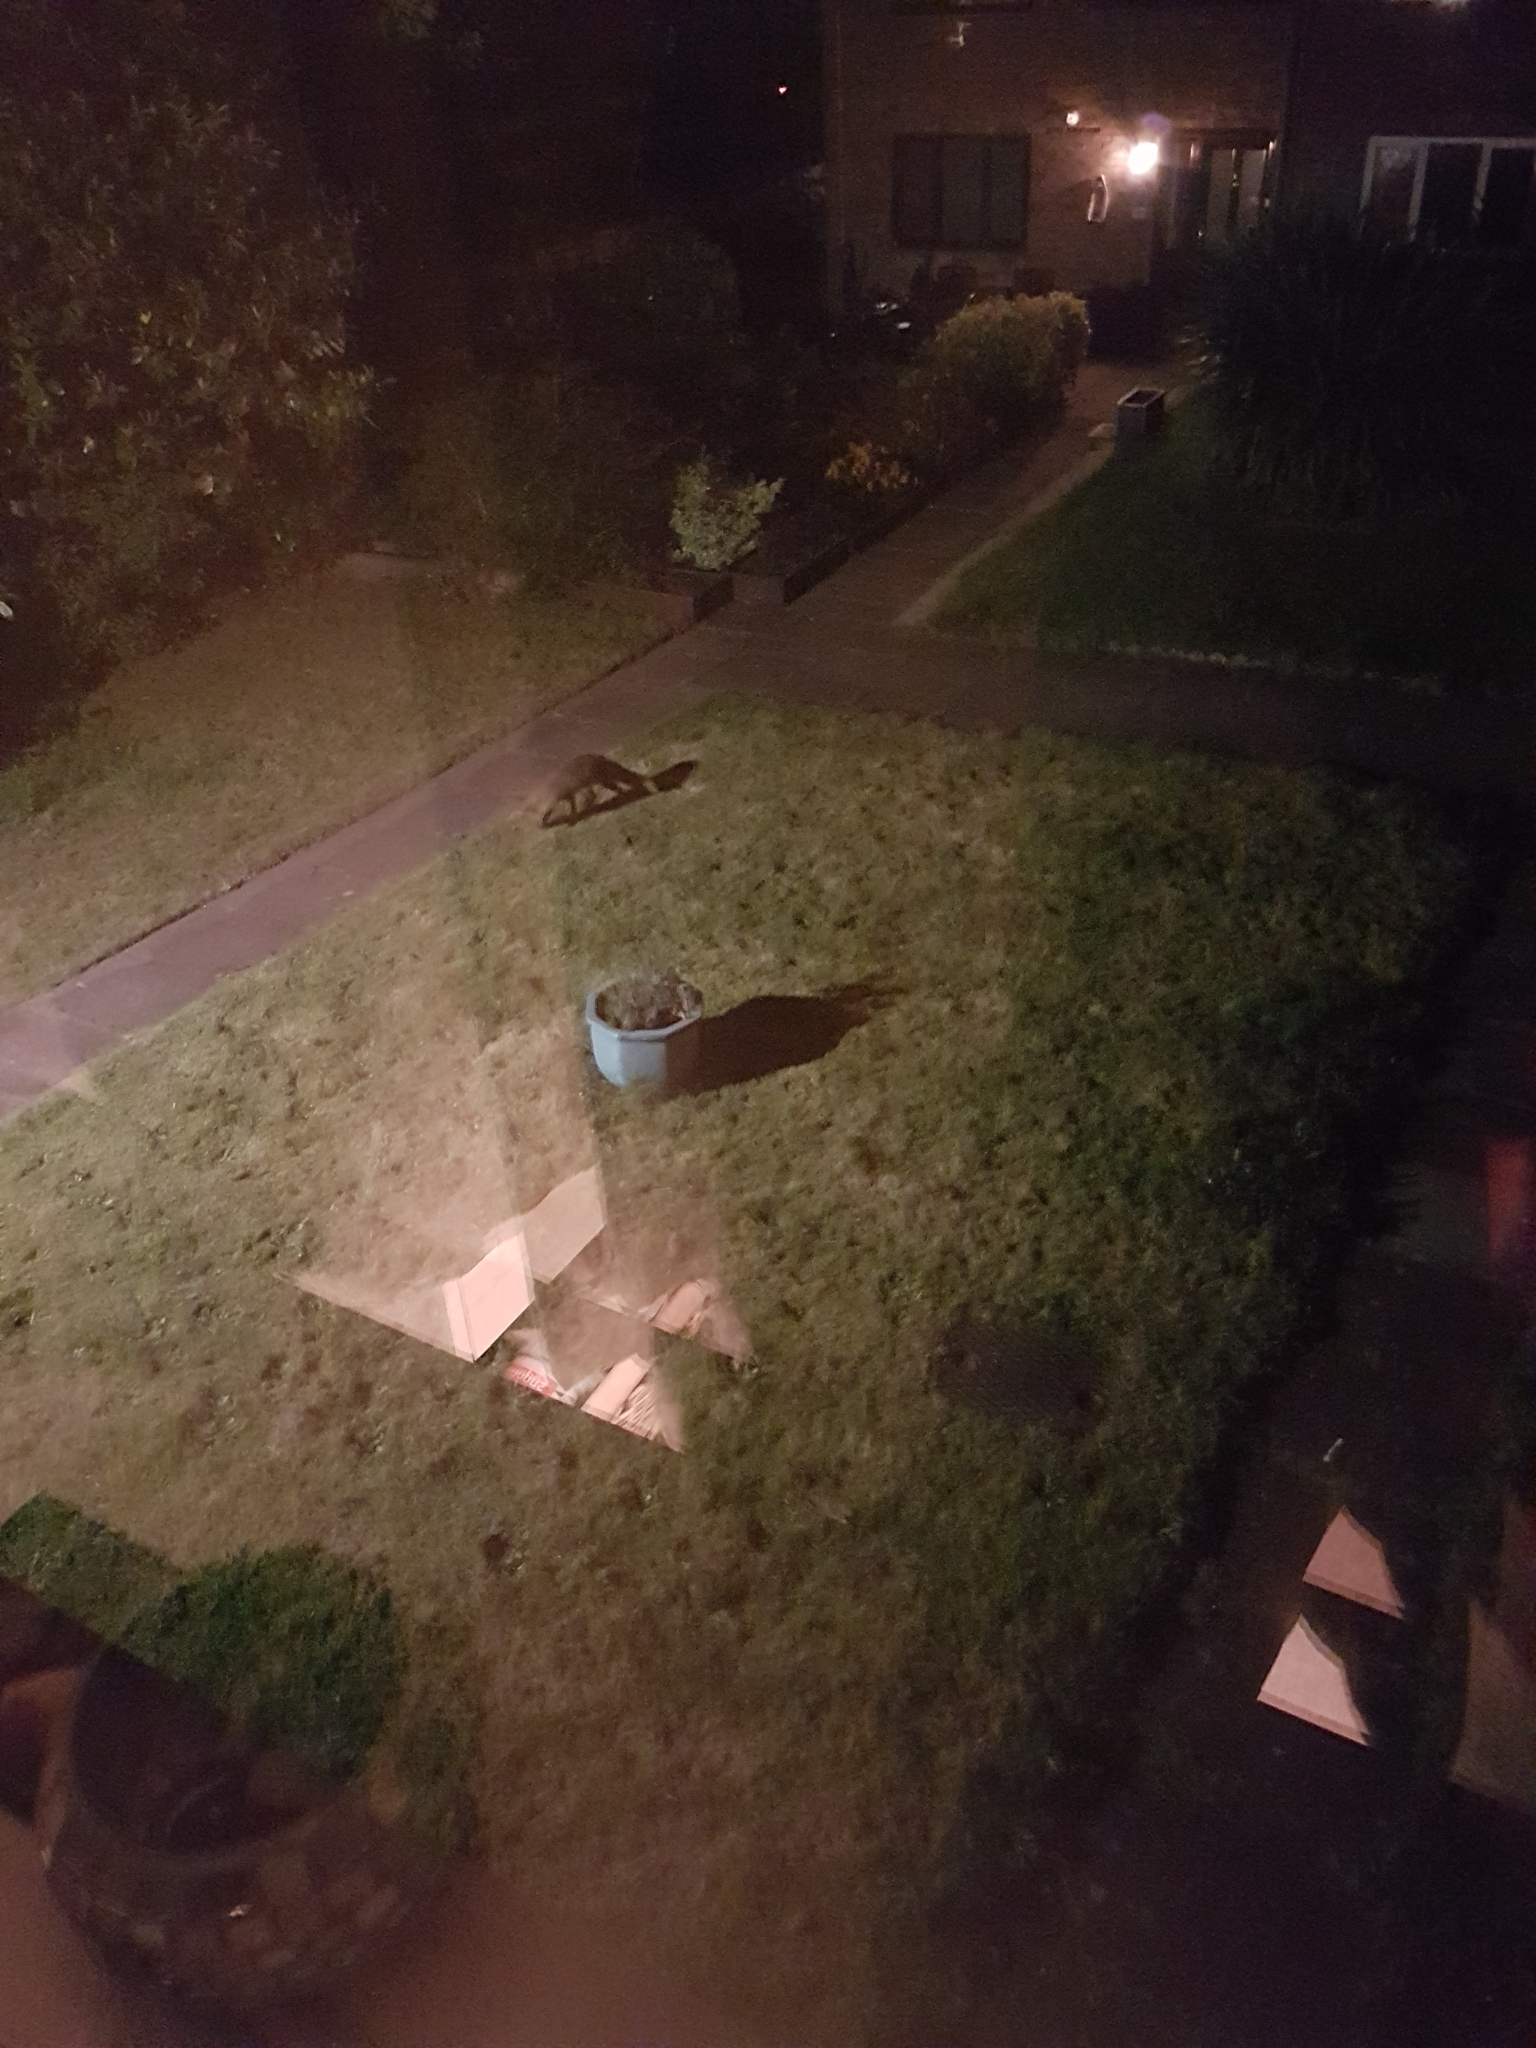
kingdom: Animalia
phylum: Chordata
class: Mammalia
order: Carnivora
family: Canidae
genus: Vulpes
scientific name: Vulpes vulpes
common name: Red fox
